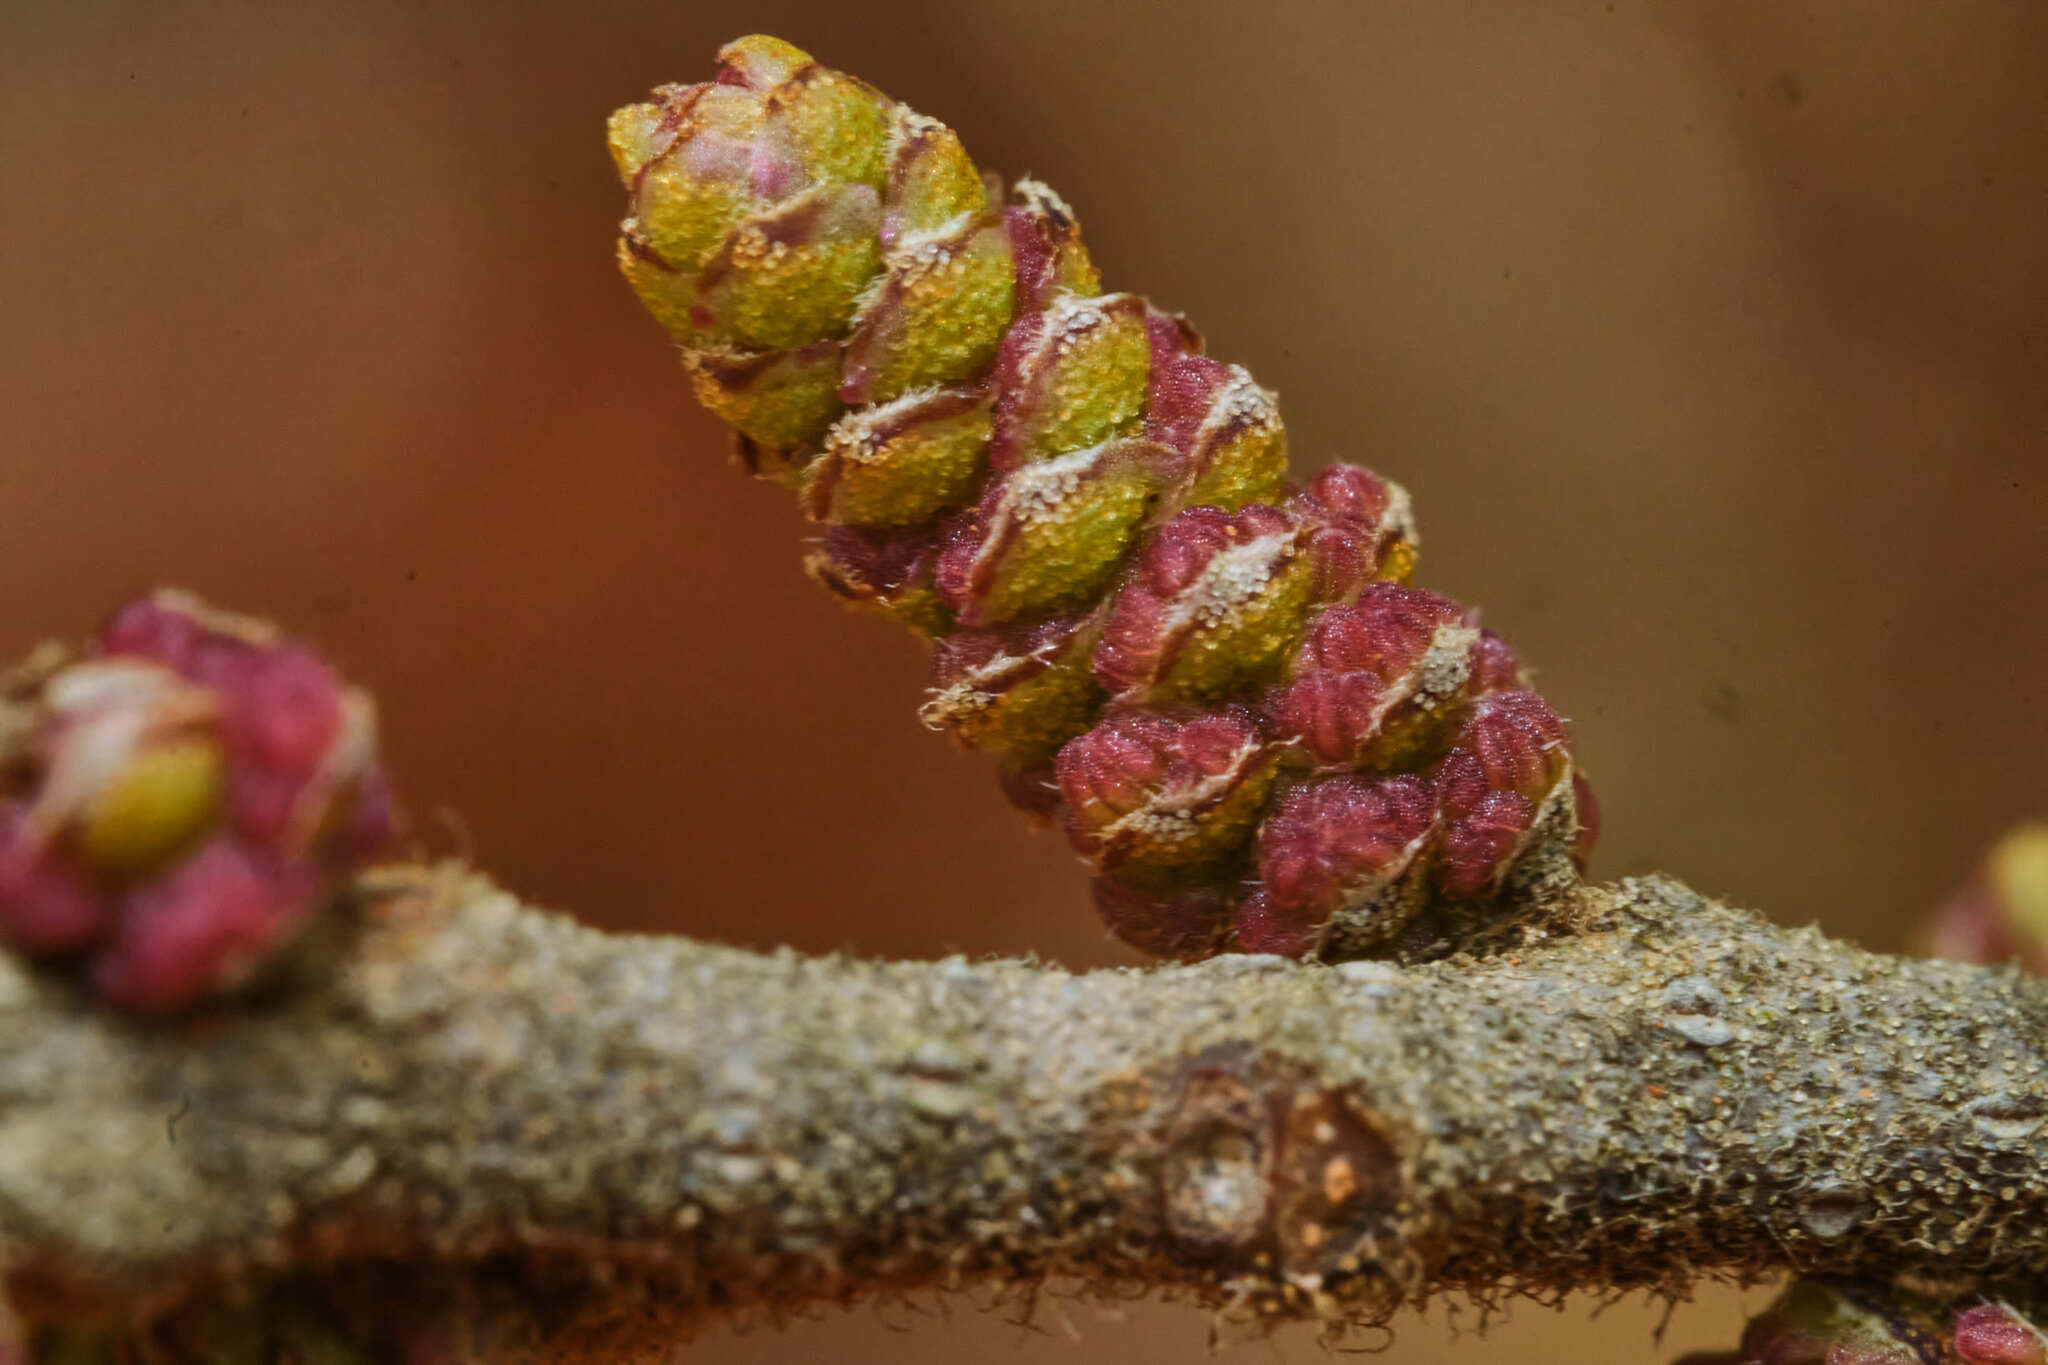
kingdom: Plantae
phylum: Tracheophyta
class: Magnoliopsida
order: Fagales
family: Myricaceae
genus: Morella
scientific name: Morella cerifera
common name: Wax myrtle
